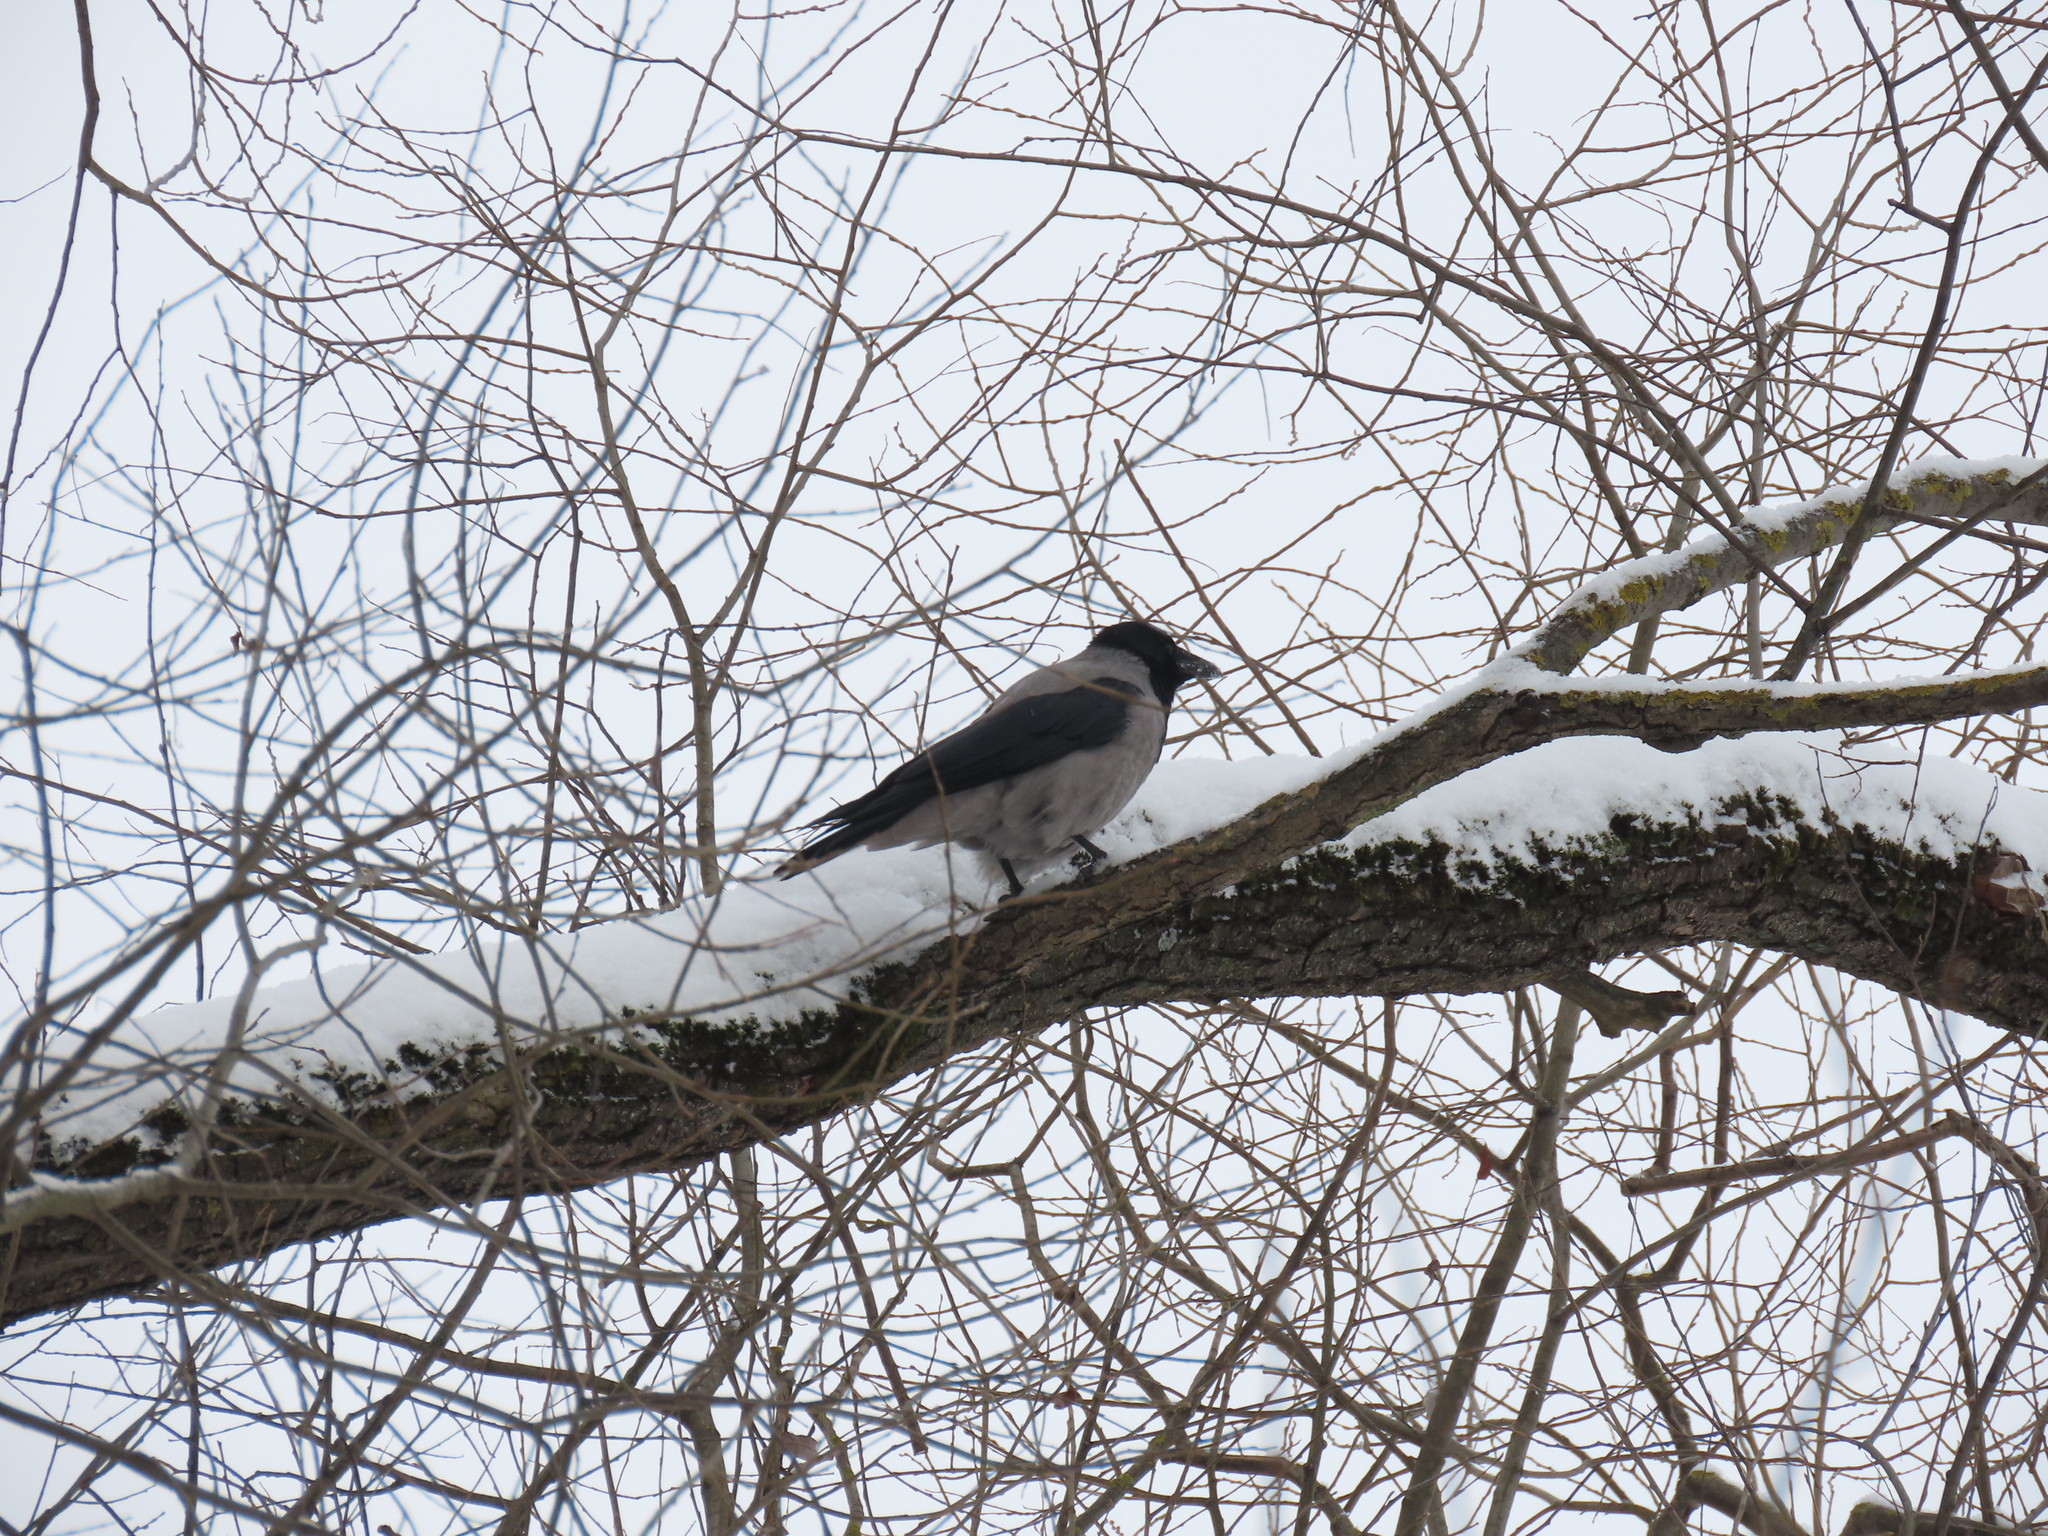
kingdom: Animalia
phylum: Chordata
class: Aves
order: Passeriformes
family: Corvidae
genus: Corvus
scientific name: Corvus cornix
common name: Hooded crow
